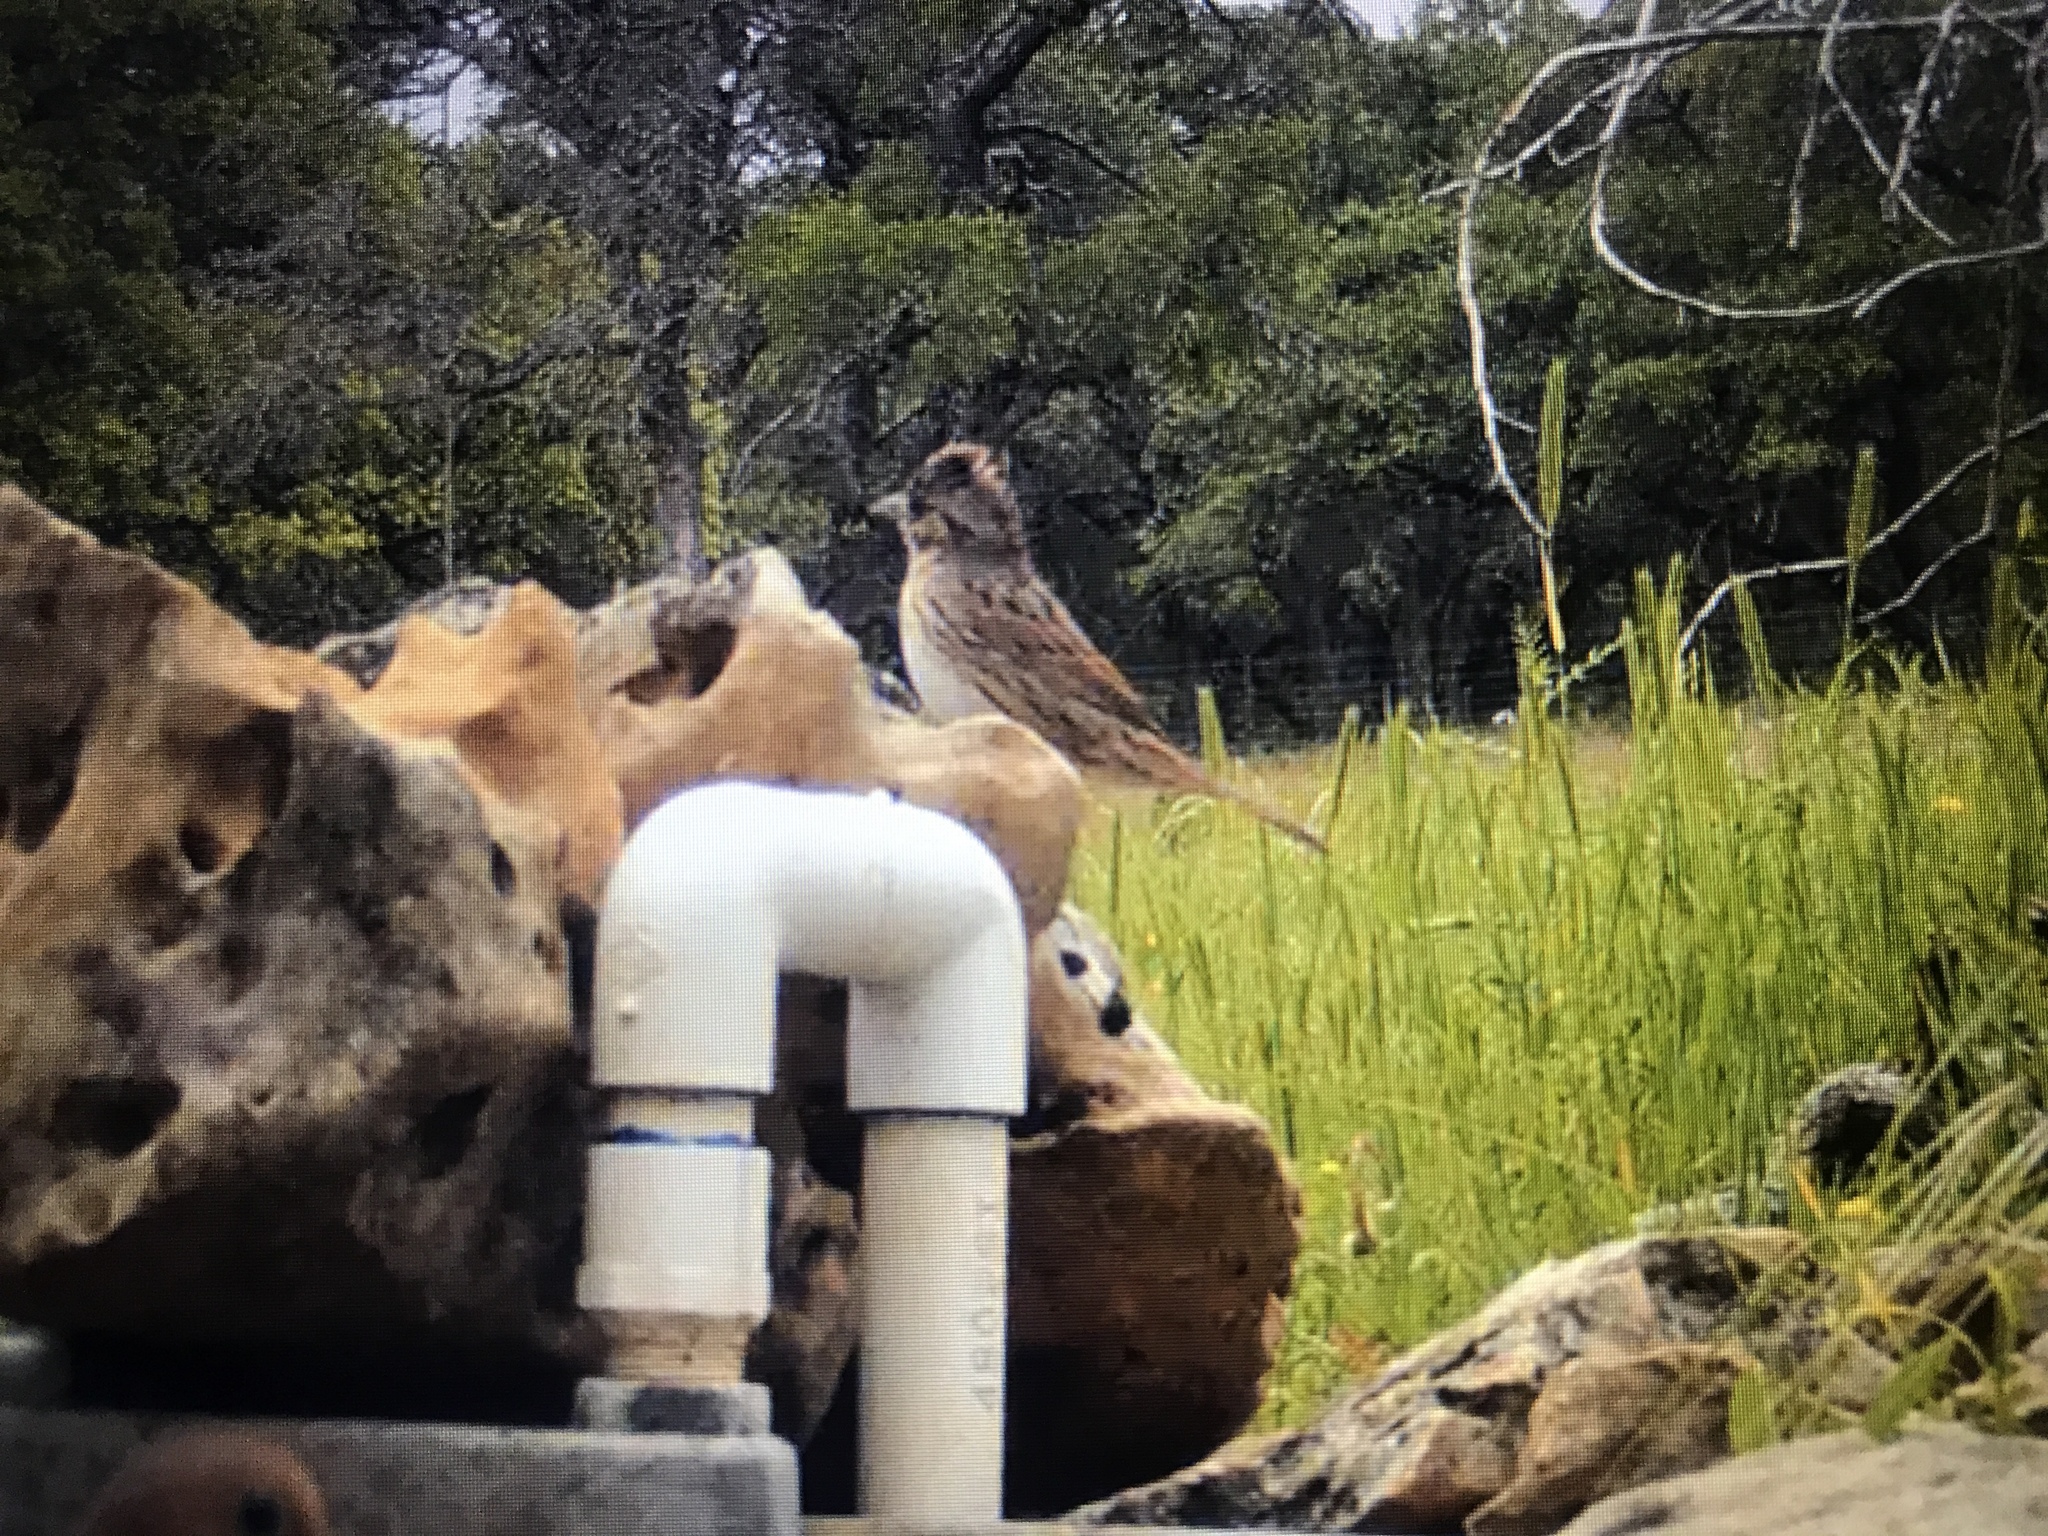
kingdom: Animalia
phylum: Chordata
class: Aves
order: Passeriformes
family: Passerellidae
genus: Melospiza
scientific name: Melospiza lincolnii
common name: Lincoln's sparrow
